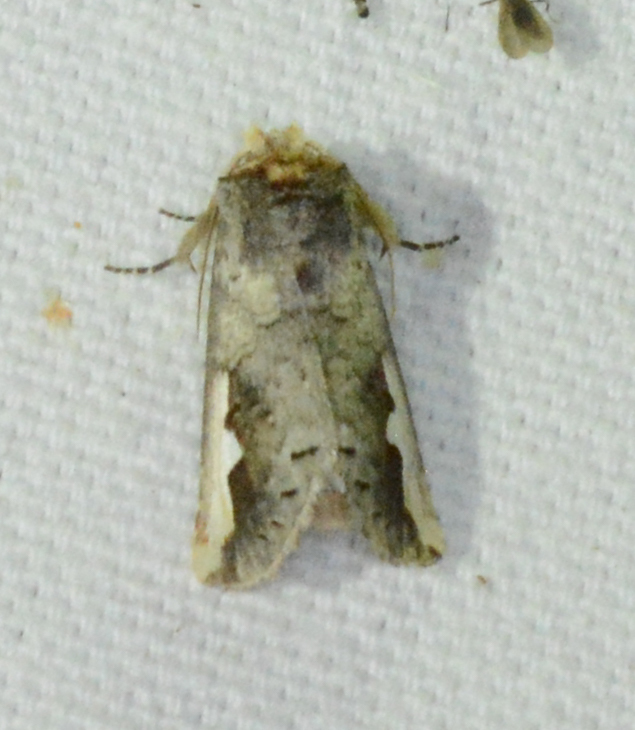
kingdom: Animalia
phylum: Arthropoda
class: Insecta
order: Lepidoptera
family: Notodontidae
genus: Symmerista
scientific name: Symmerista
